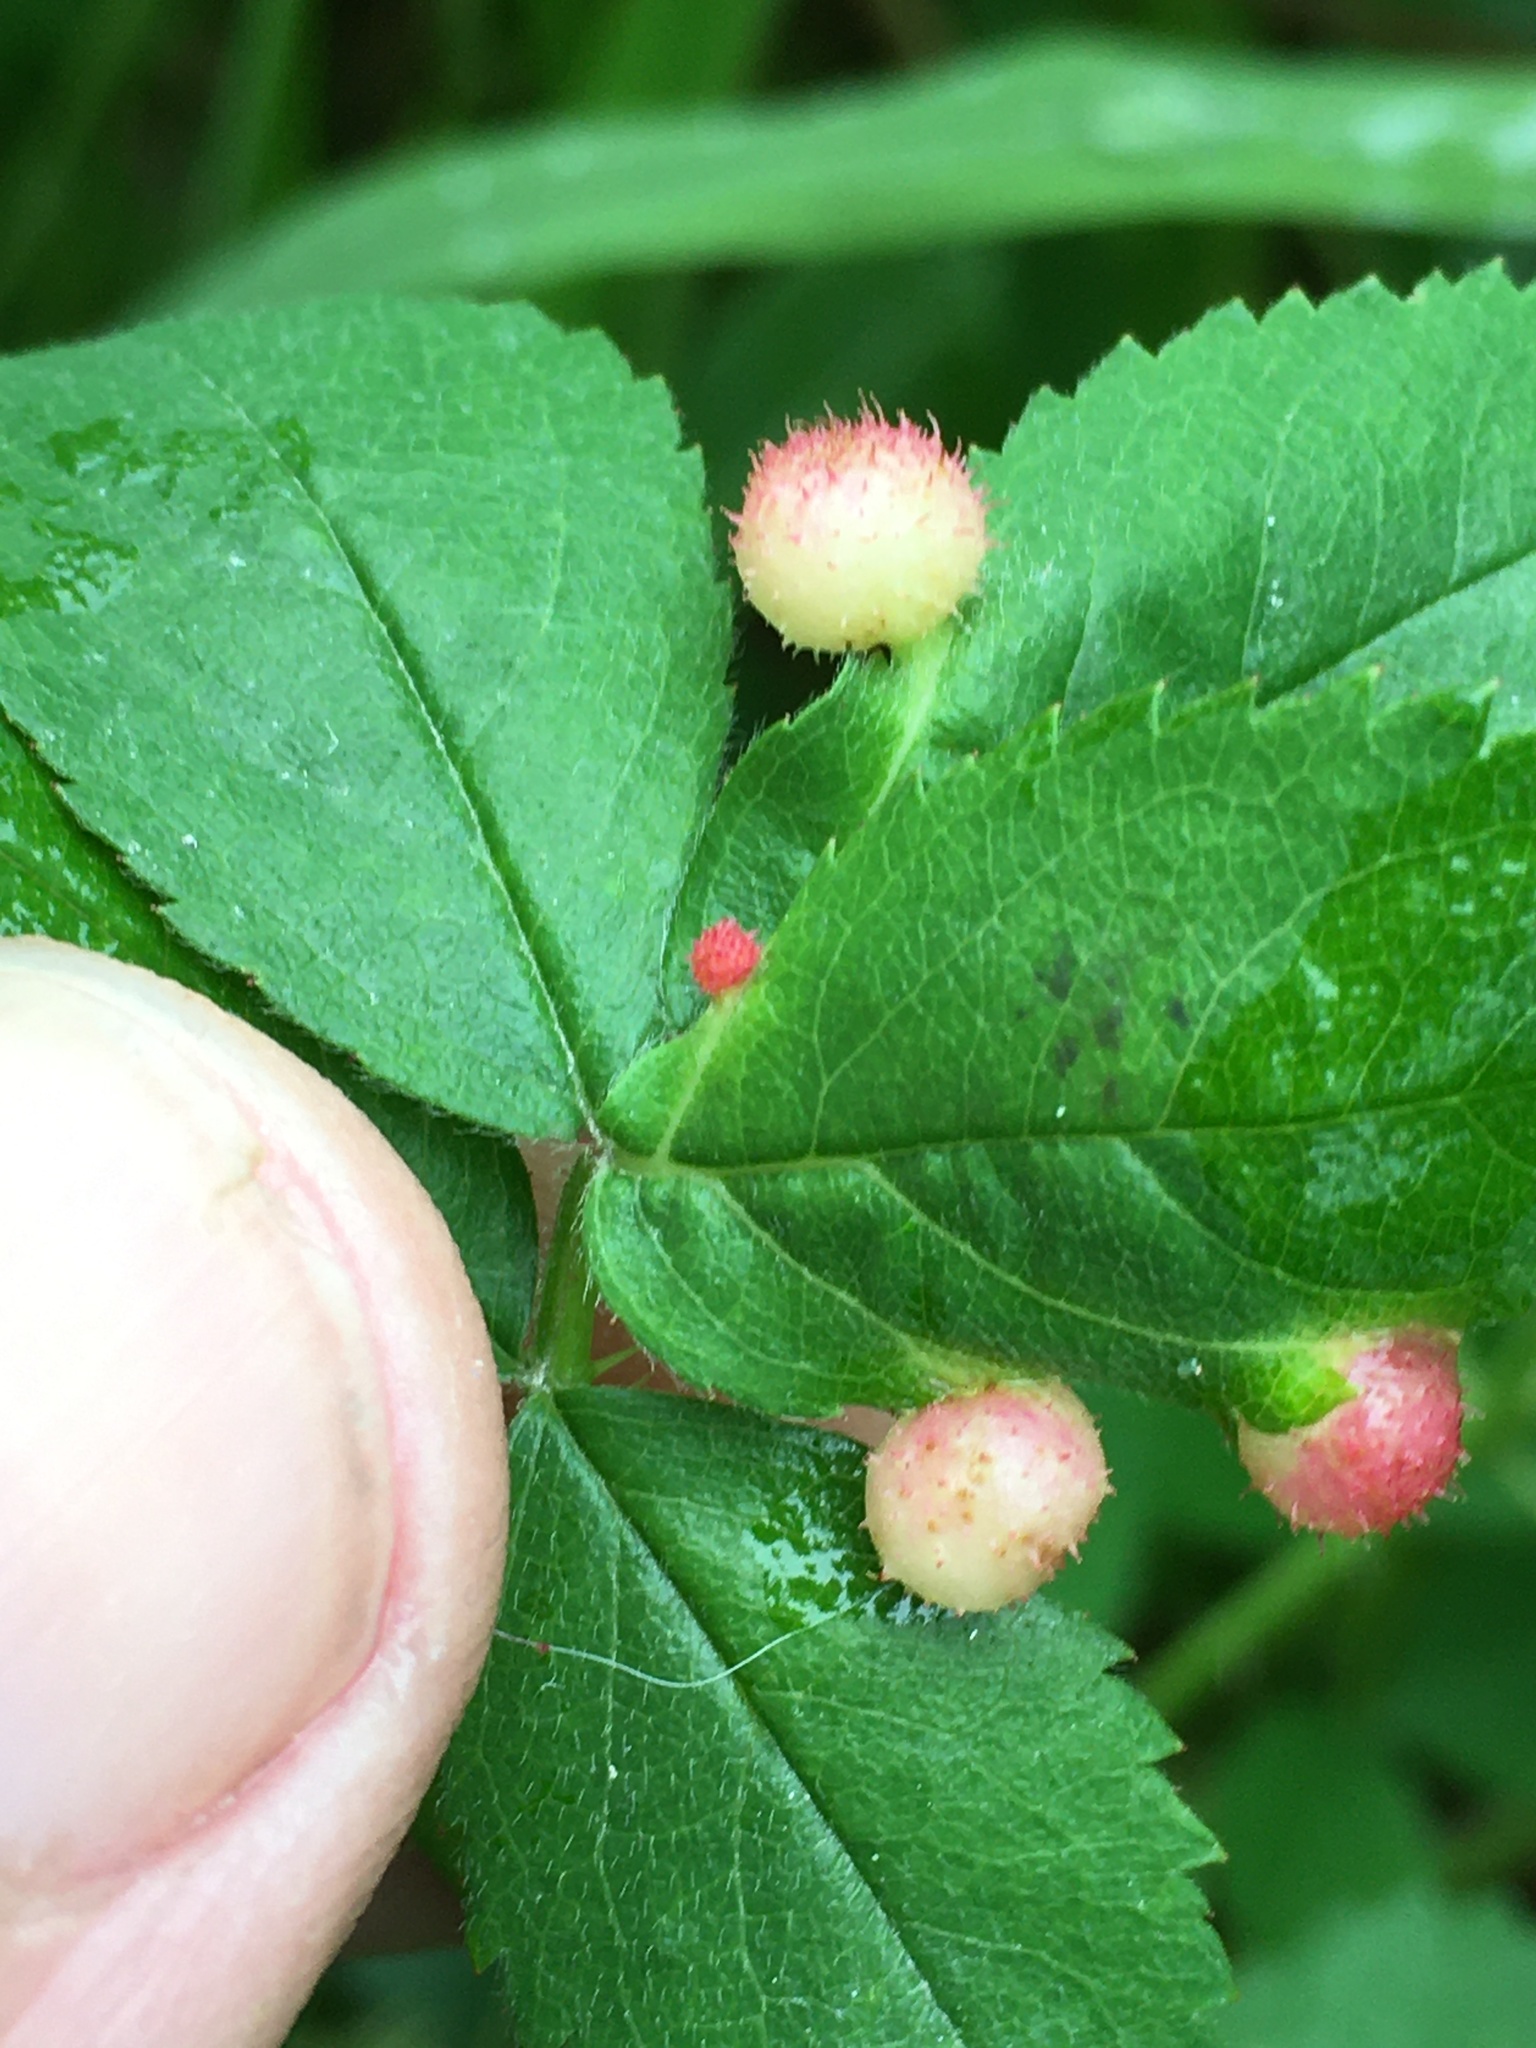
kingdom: Animalia
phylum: Arthropoda
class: Insecta
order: Hymenoptera
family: Cynipidae
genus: Diplolepis
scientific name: Diplolepis polita
